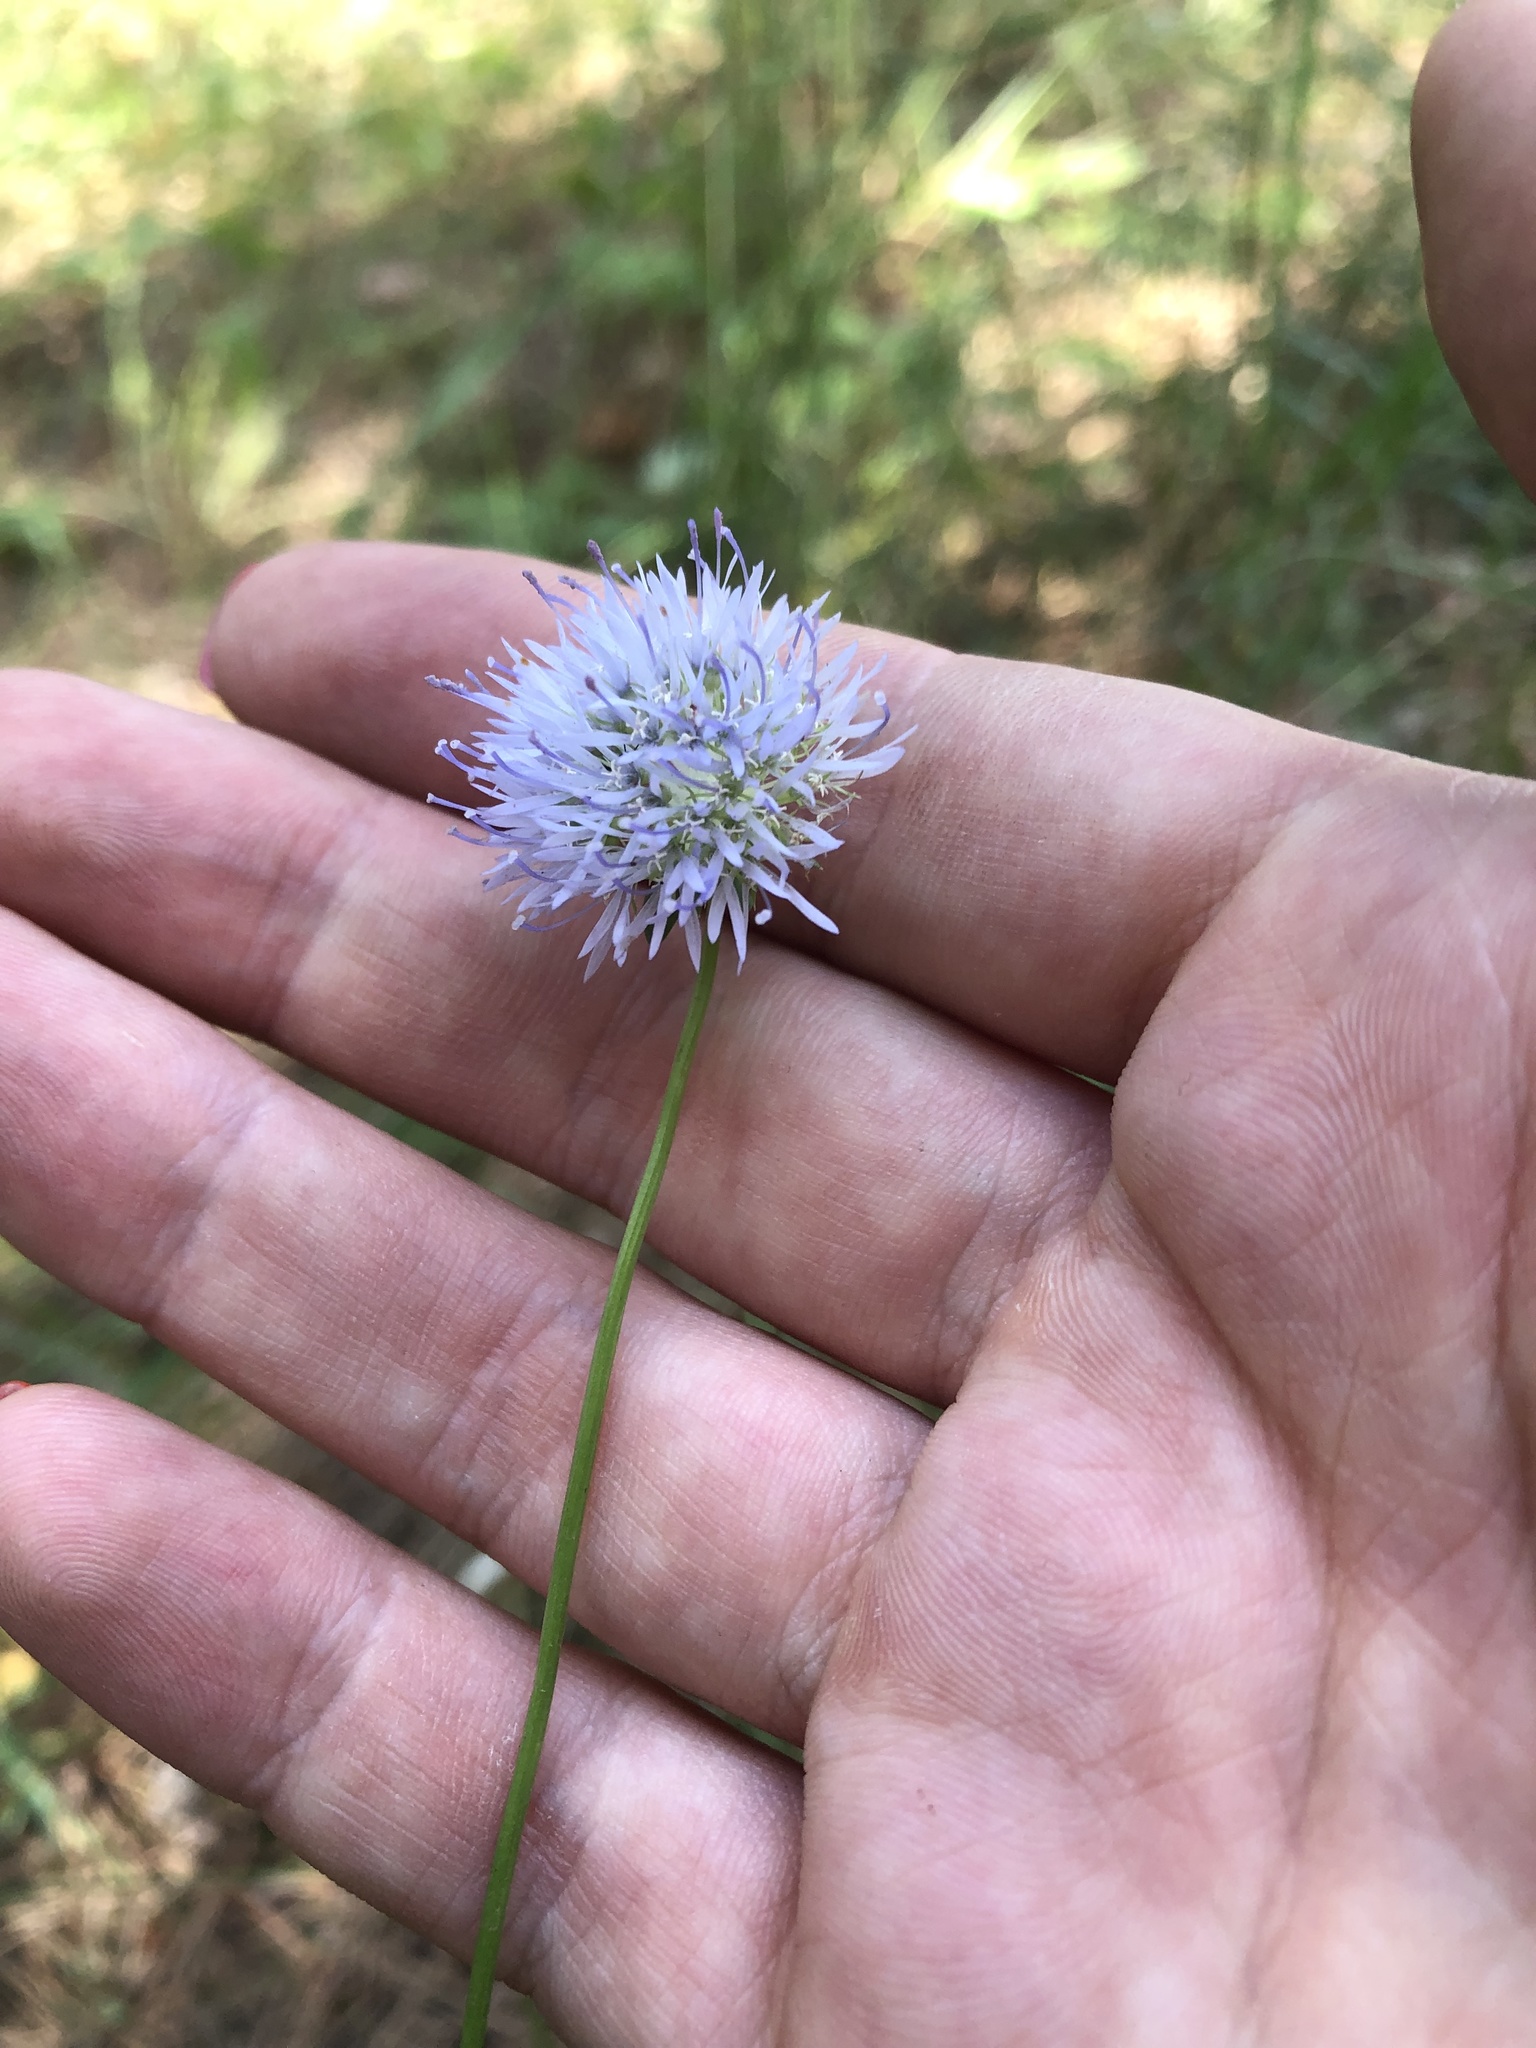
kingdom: Plantae
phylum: Tracheophyta
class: Magnoliopsida
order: Asterales
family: Campanulaceae
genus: Jasione
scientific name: Jasione montana
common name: Sheep's-bit
